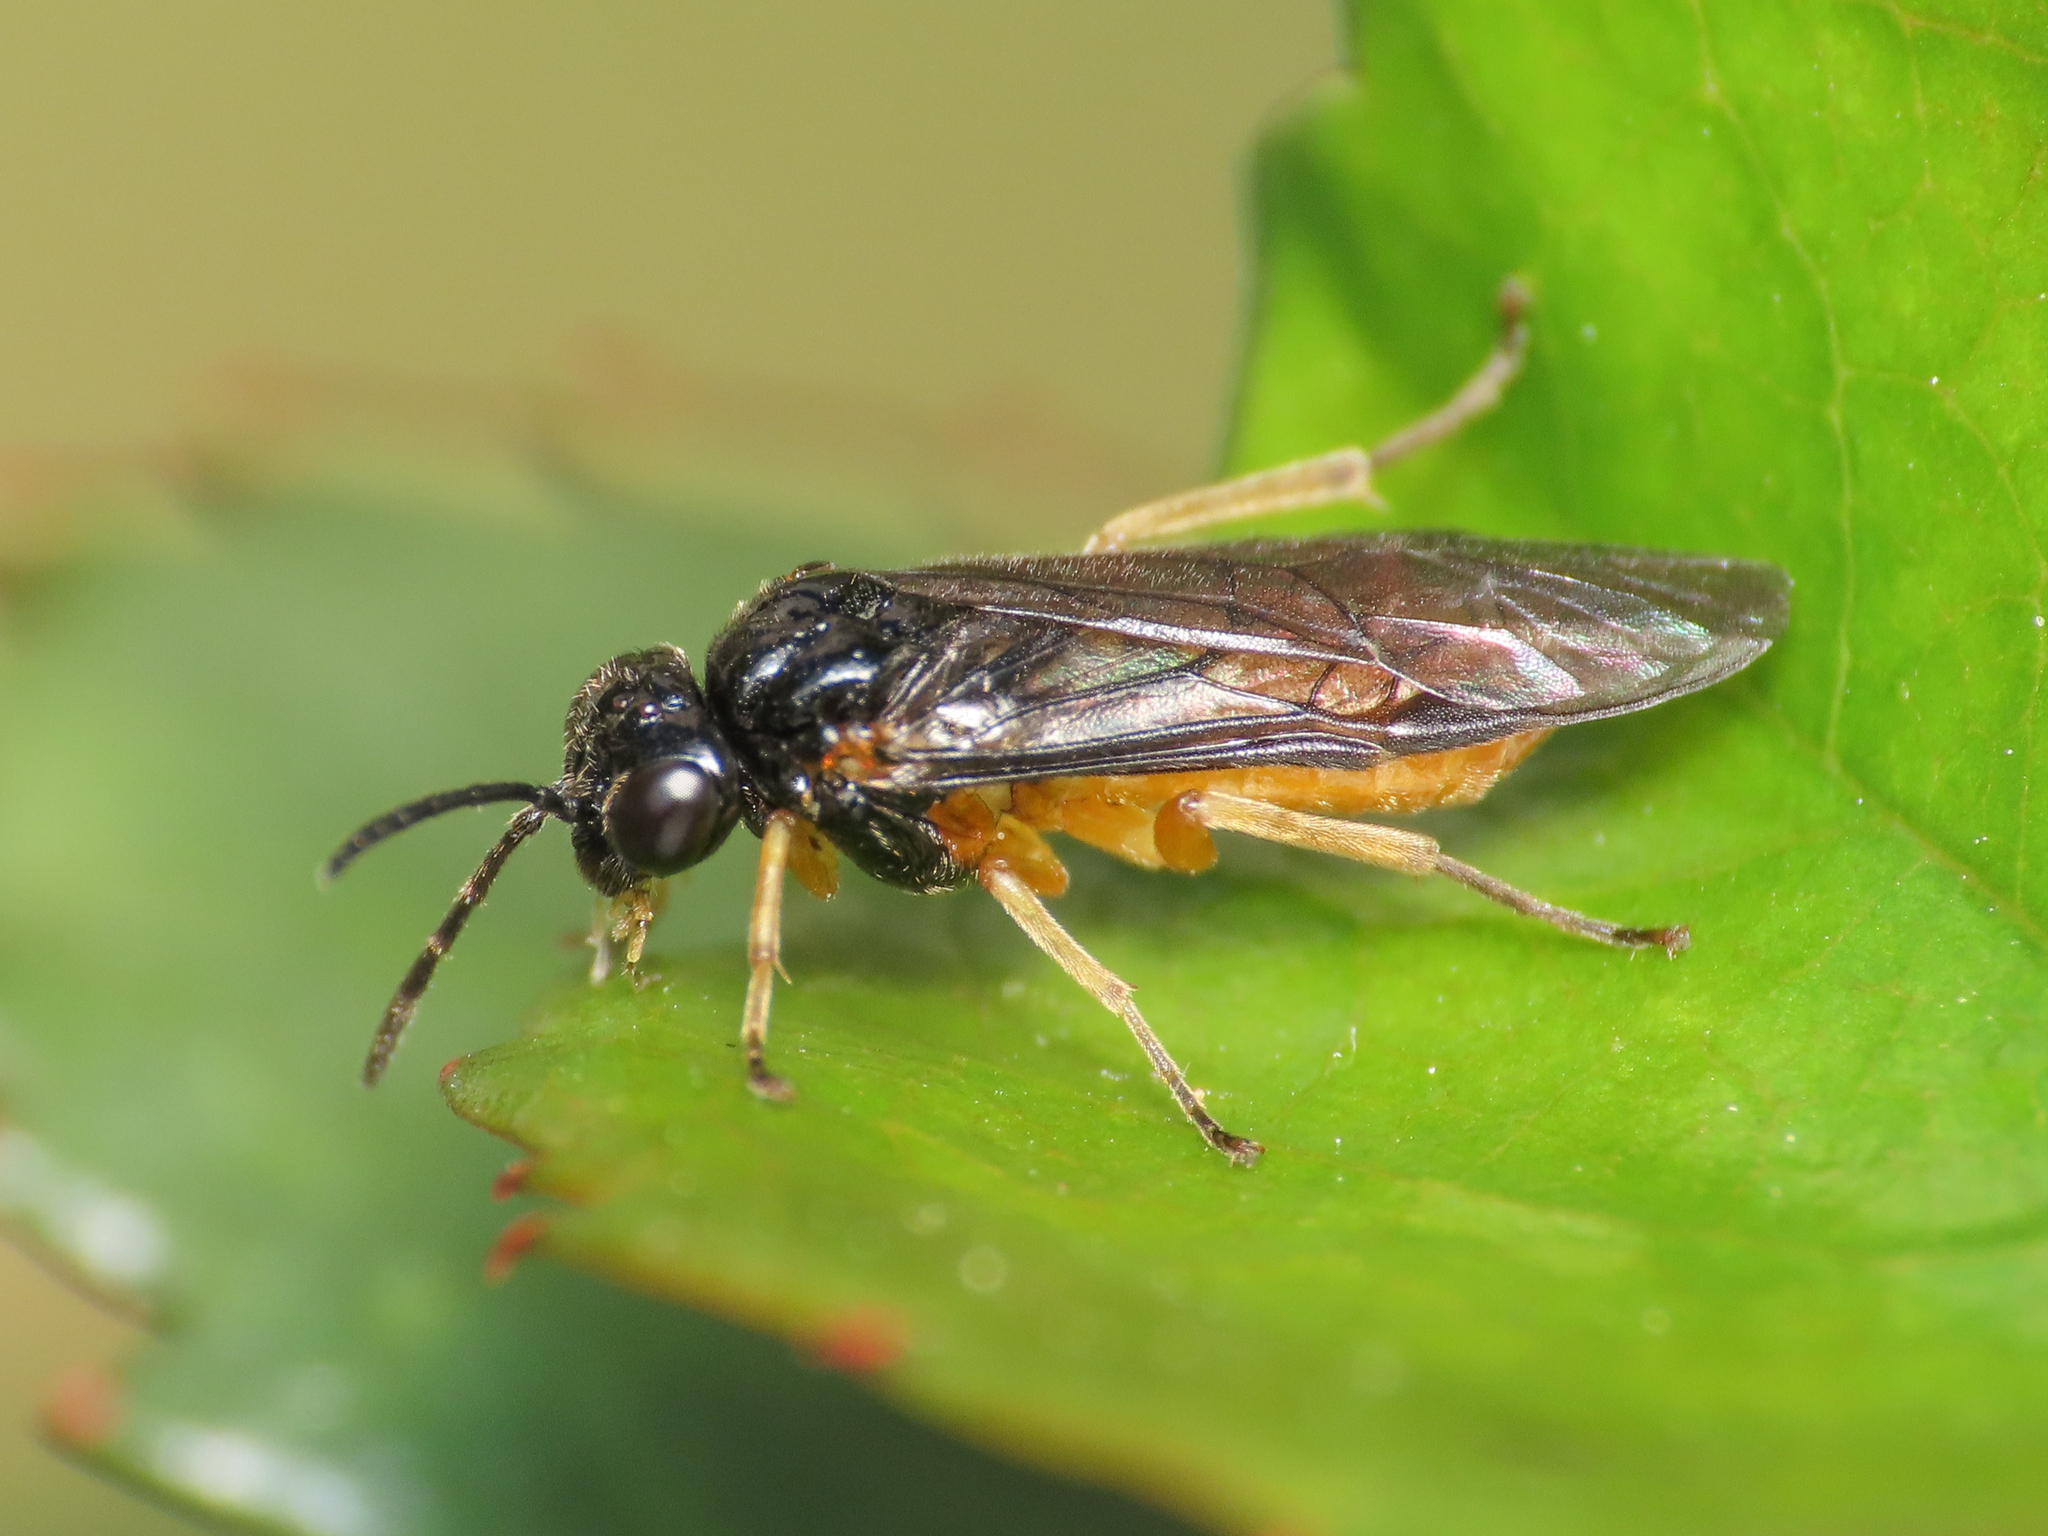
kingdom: Animalia
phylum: Arthropoda
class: Insecta
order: Hymenoptera
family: Tenthredinidae
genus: Halidamia
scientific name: Halidamia affinis
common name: Wasp
